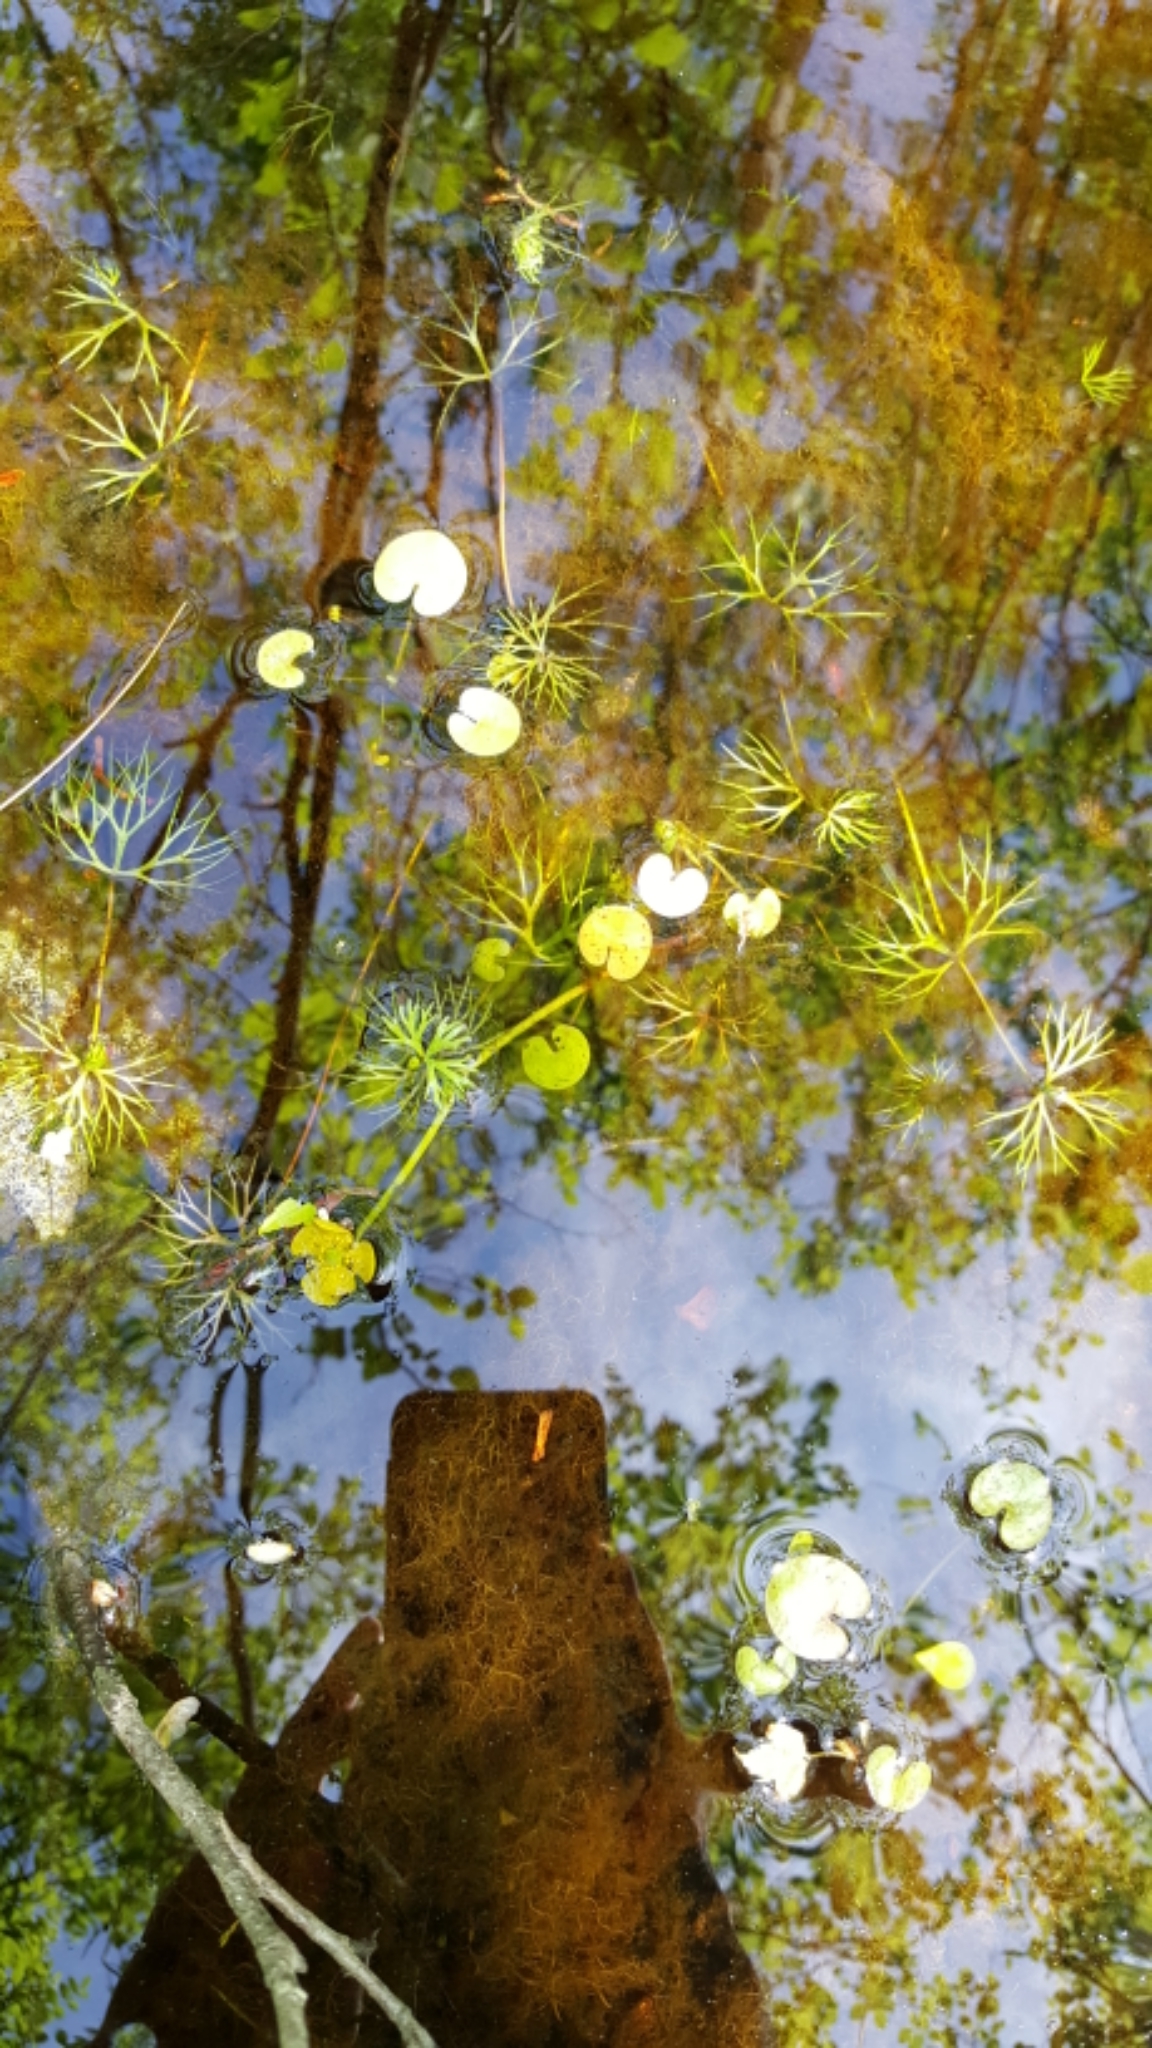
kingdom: Plantae
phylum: Tracheophyta
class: Liliopsida
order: Alismatales
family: Hydrocharitaceae
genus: Hydrocharis
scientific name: Hydrocharis morsus-ranae
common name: Frogbit
